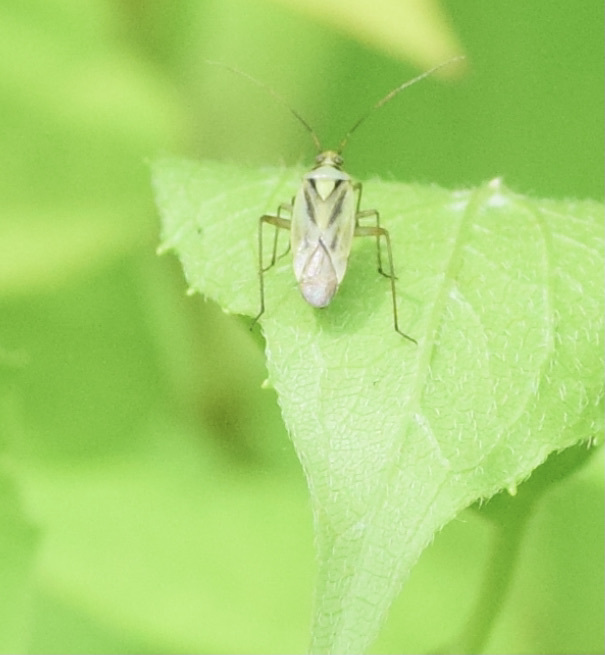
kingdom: Animalia
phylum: Arthropoda
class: Insecta
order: Hemiptera
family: Miridae
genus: Stenotus
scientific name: Stenotus binotatus
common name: Plant bug
